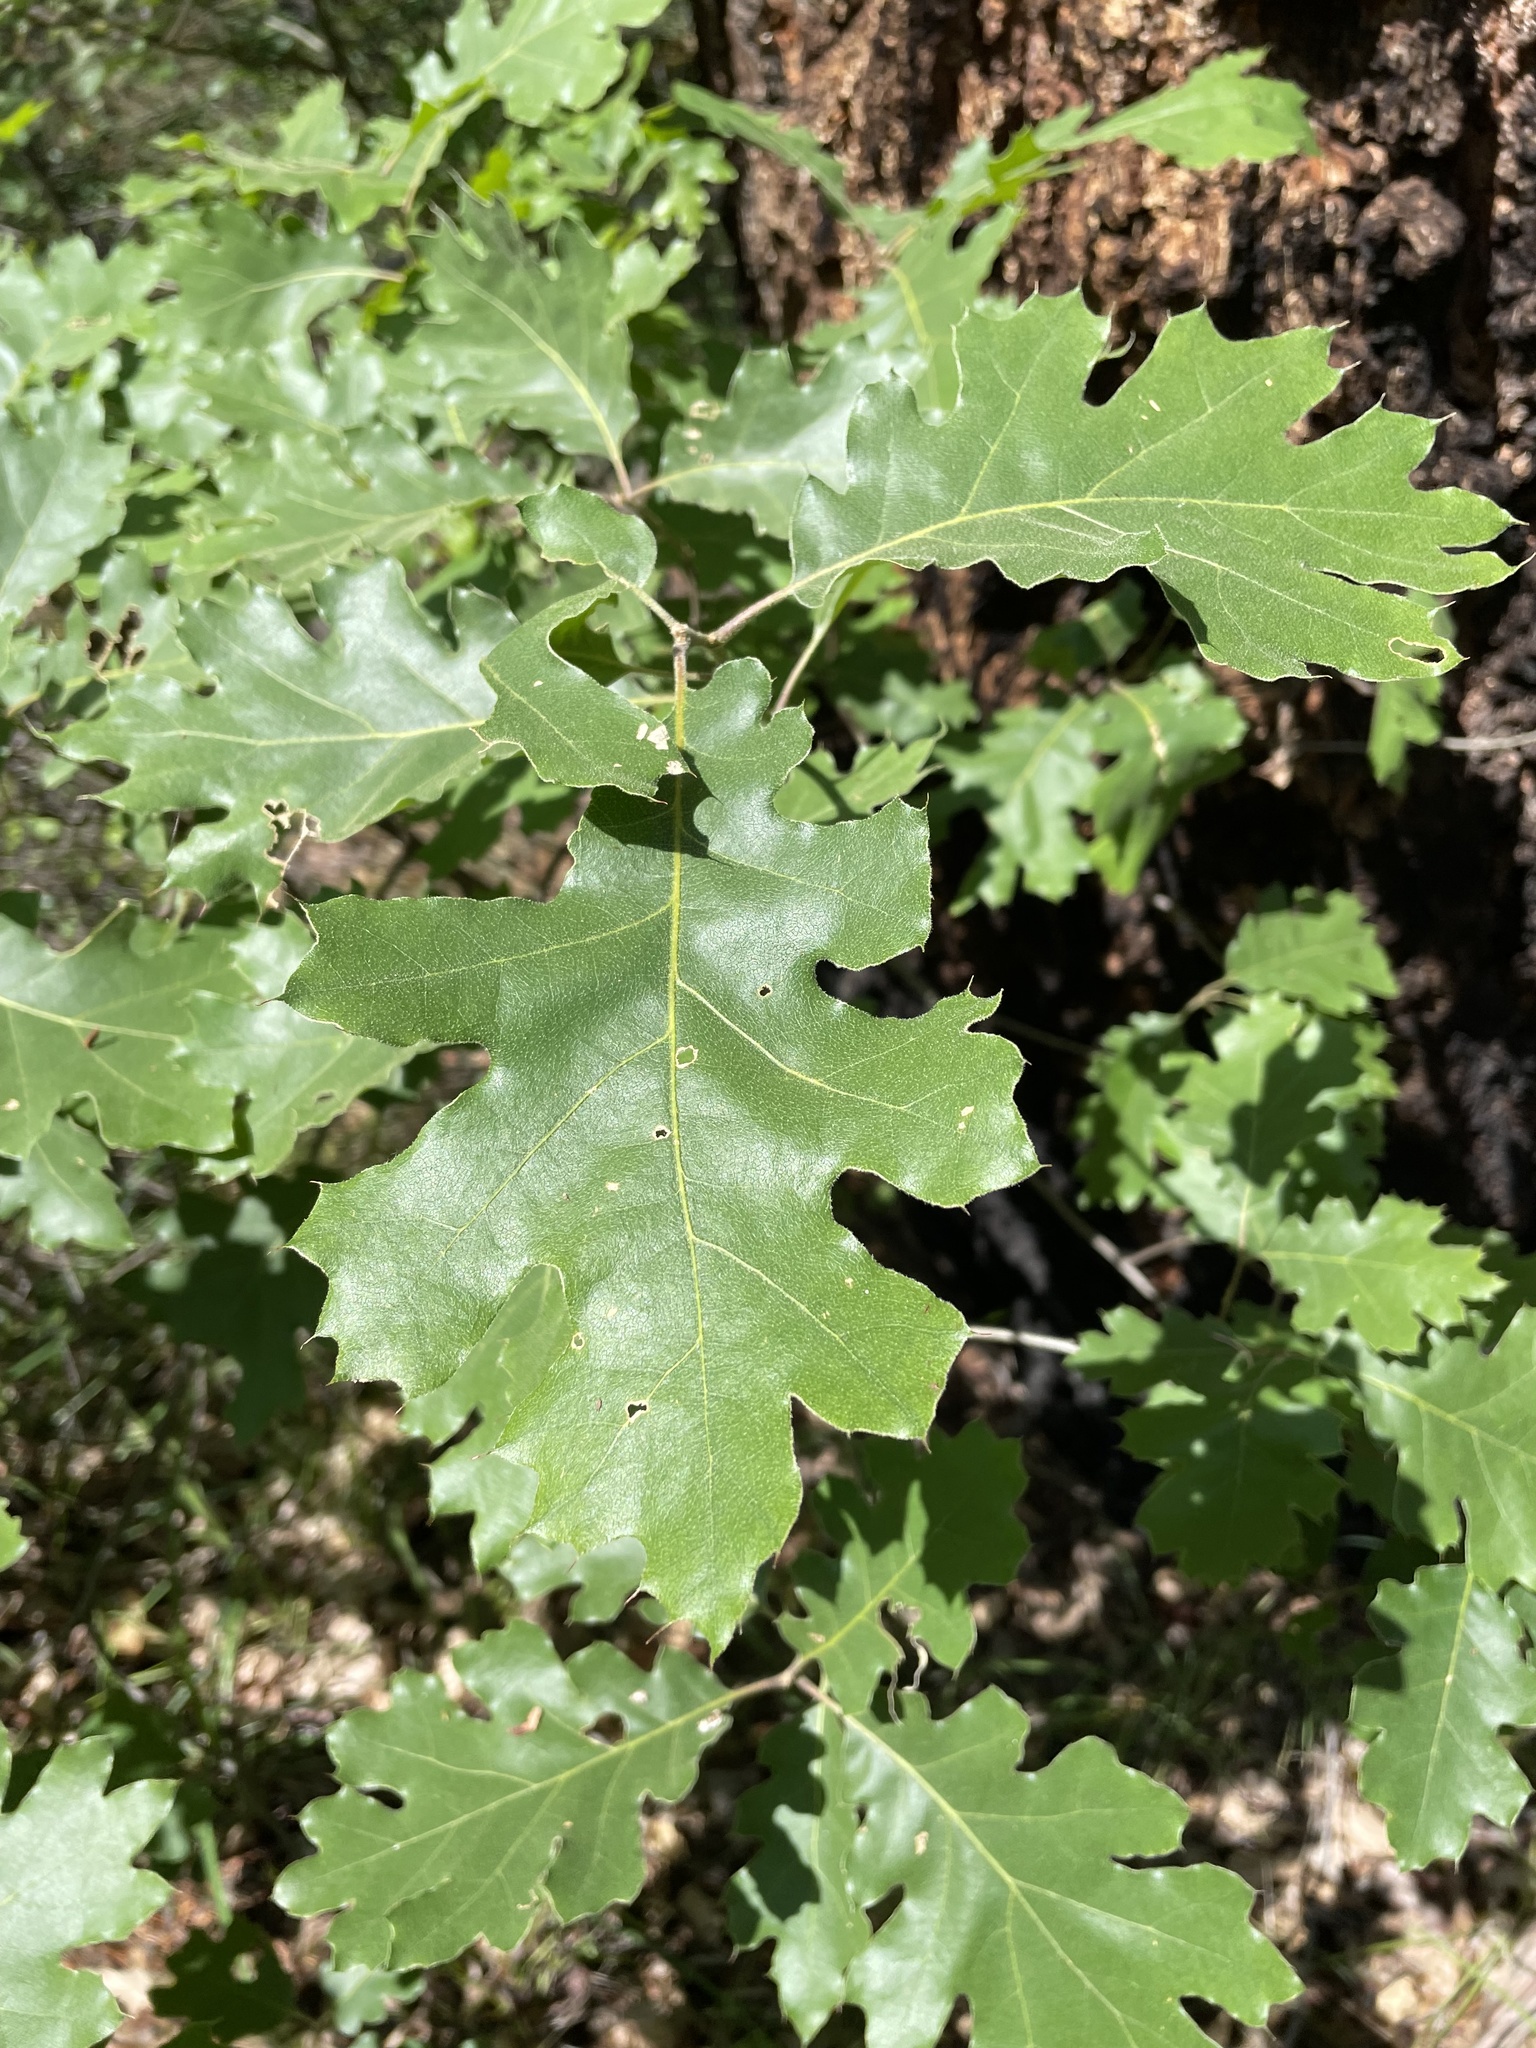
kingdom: Plantae
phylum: Tracheophyta
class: Magnoliopsida
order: Fagales
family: Fagaceae
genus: Quercus
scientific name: Quercus kelloggii
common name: California black oak
